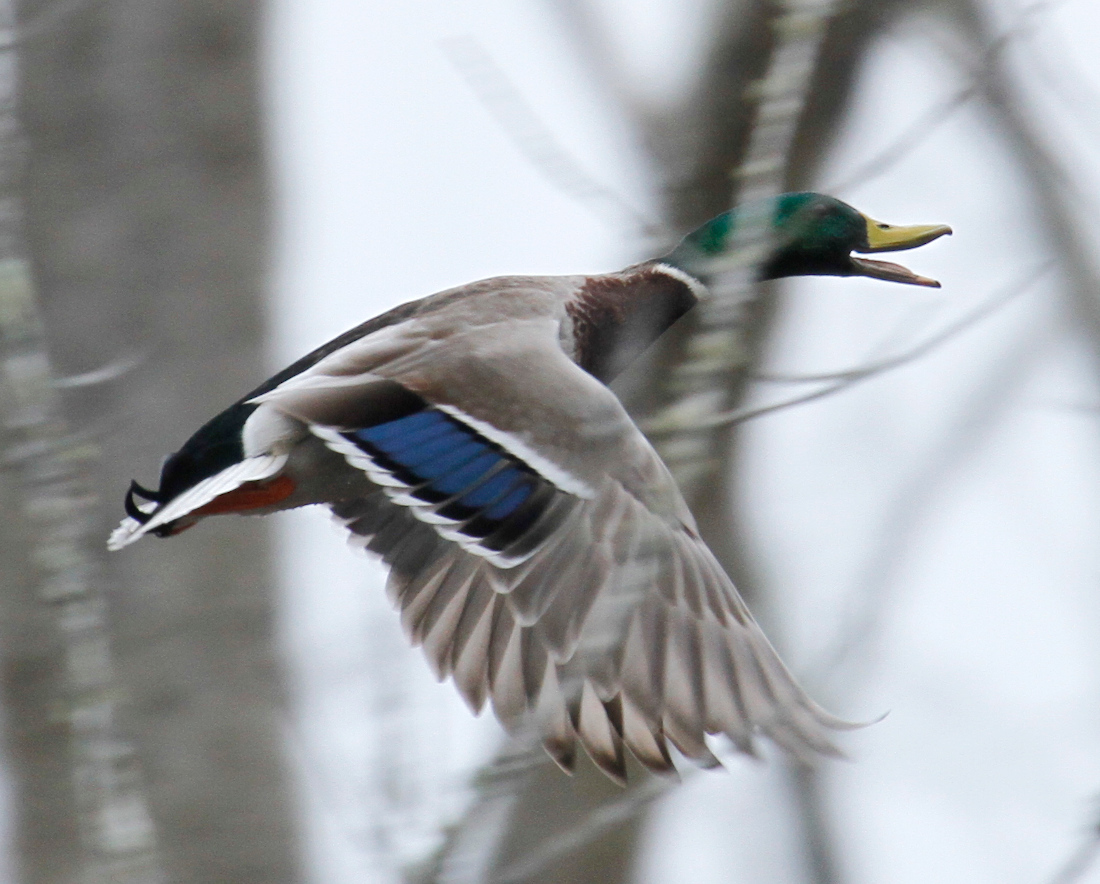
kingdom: Animalia
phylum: Chordata
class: Aves
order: Anseriformes
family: Anatidae
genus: Anas
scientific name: Anas platyrhynchos
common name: Mallard
